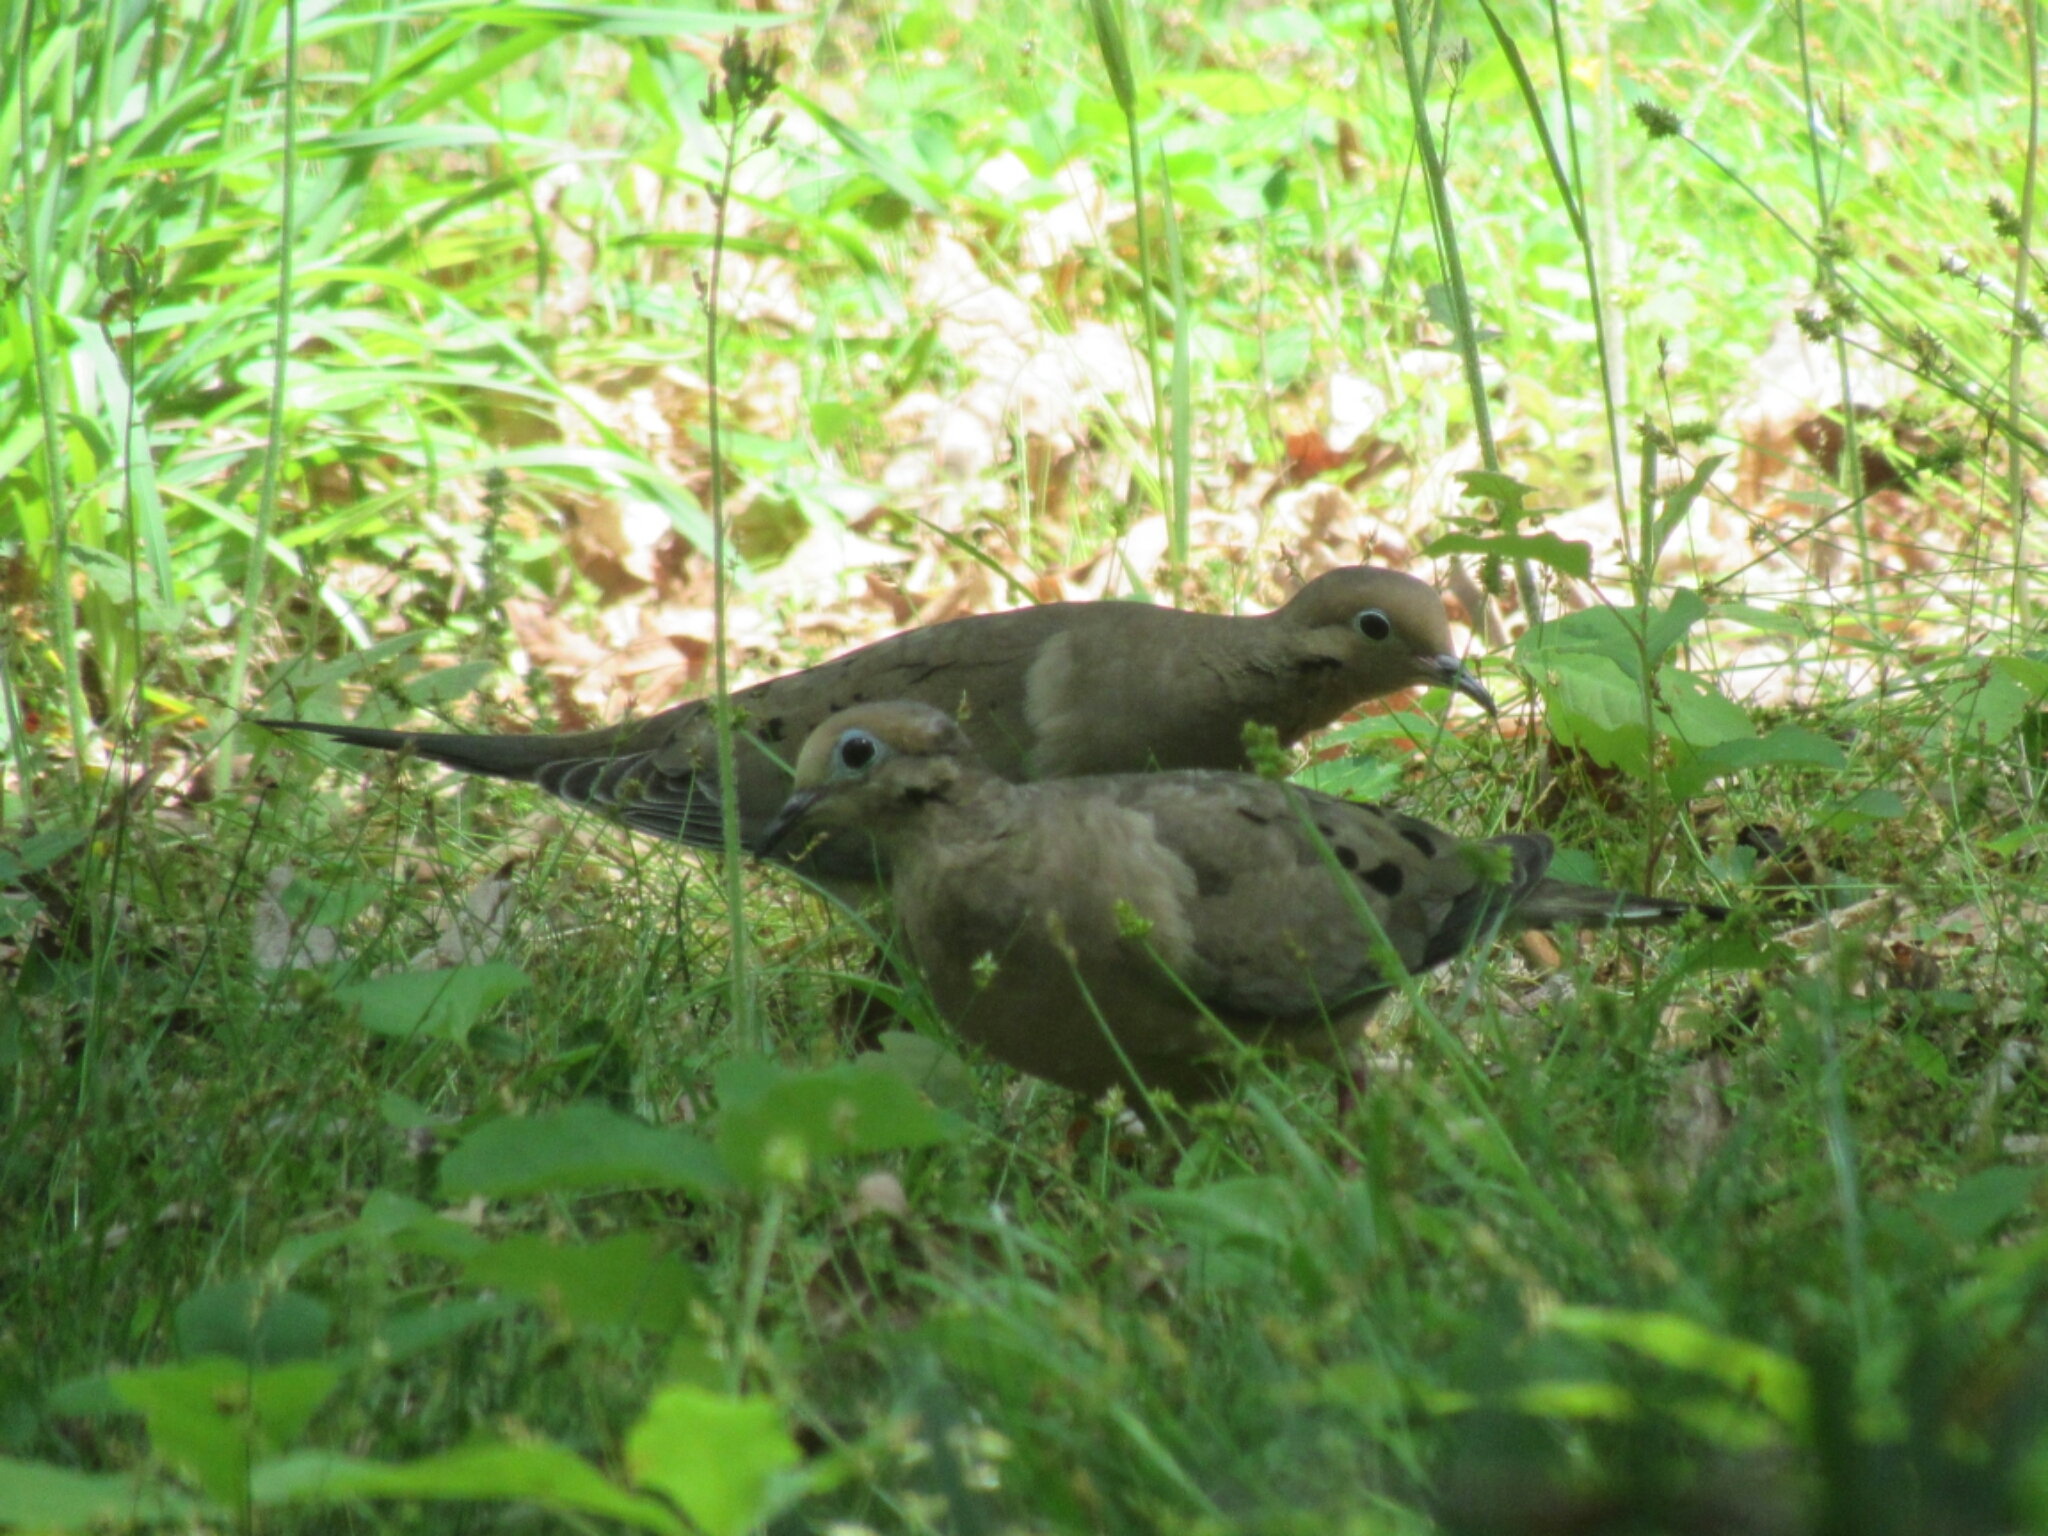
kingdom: Animalia
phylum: Chordata
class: Aves
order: Columbiformes
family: Columbidae
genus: Zenaida
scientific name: Zenaida macroura
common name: Mourning dove
